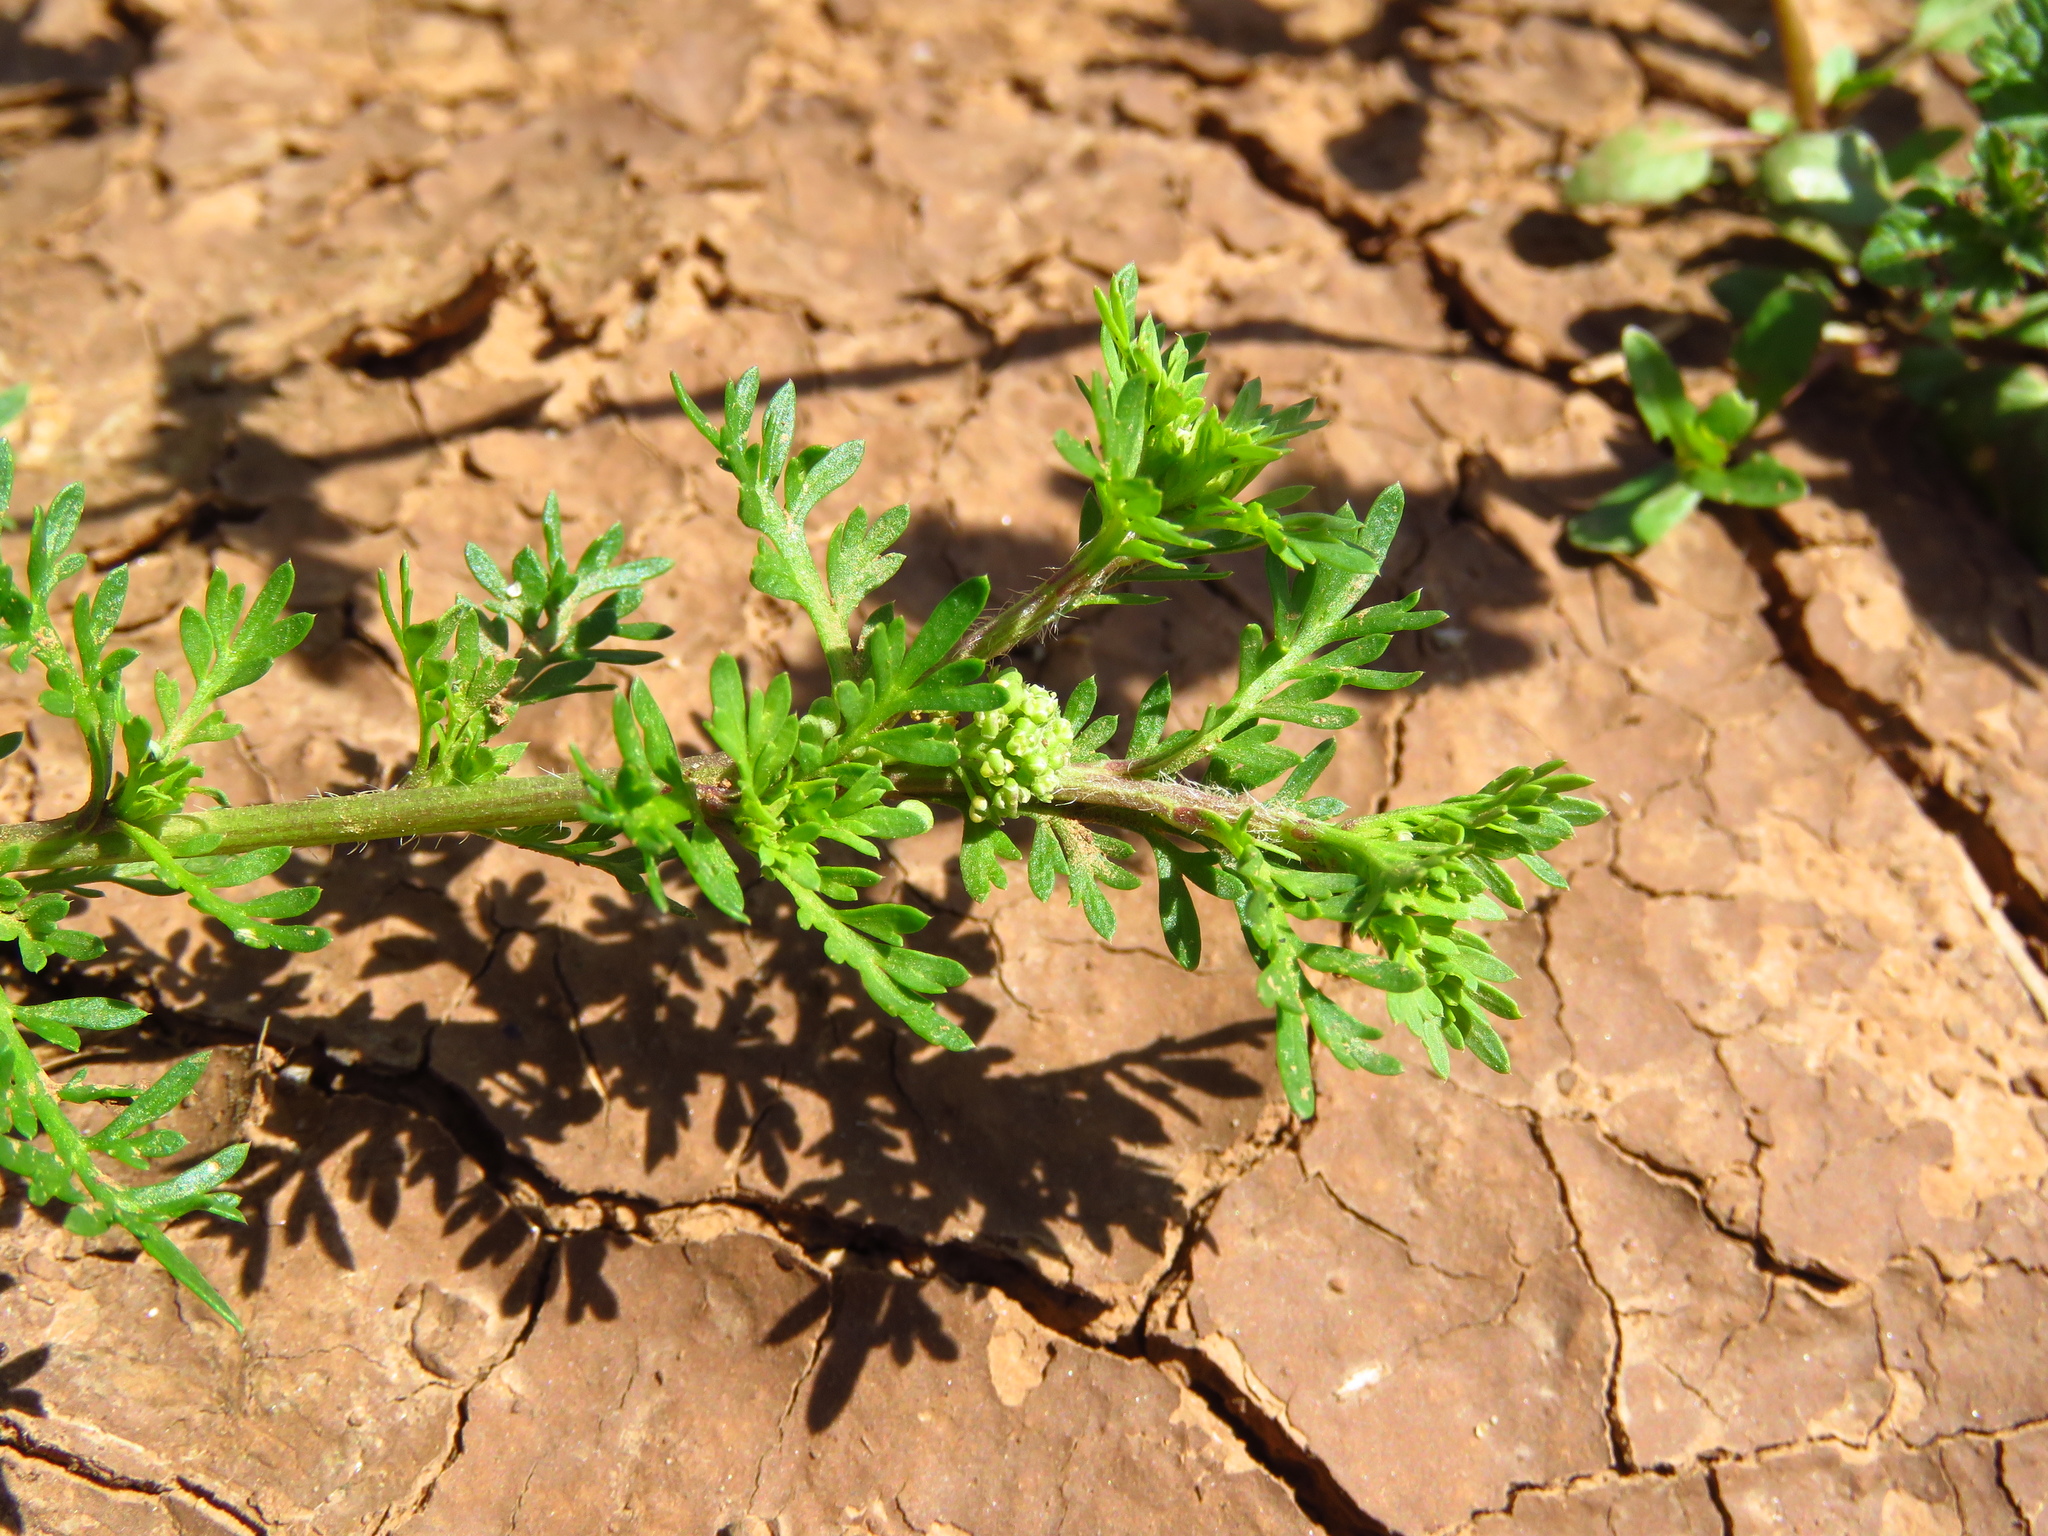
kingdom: Plantae
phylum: Tracheophyta
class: Magnoliopsida
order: Brassicales
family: Brassicaceae
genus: Lepidium
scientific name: Lepidium didymum
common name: Lesser swinecress
